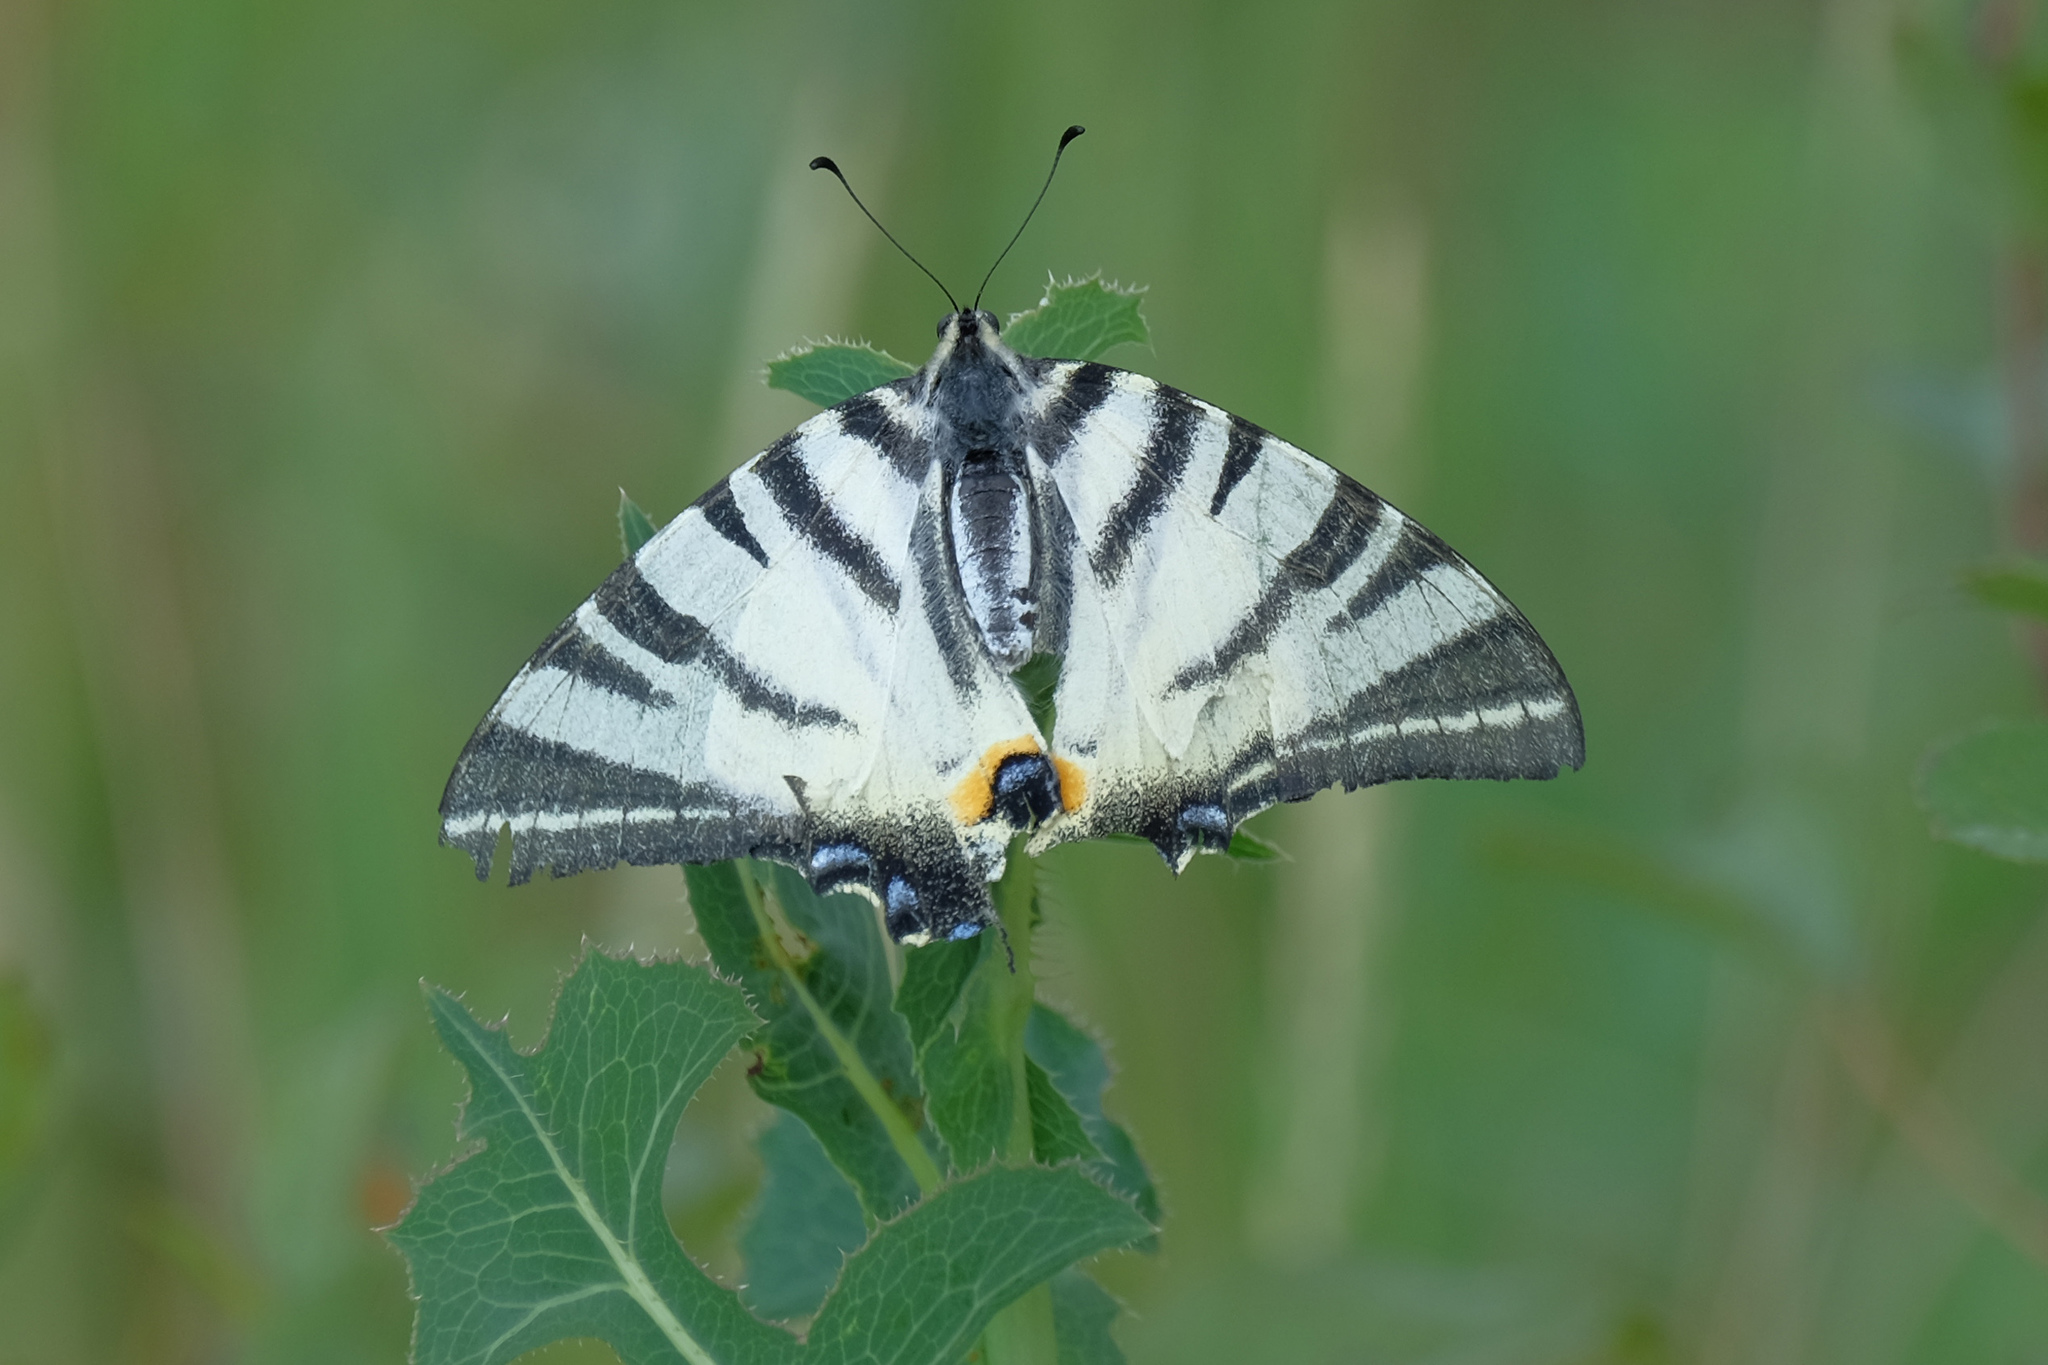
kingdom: Animalia
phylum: Arthropoda
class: Insecta
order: Lepidoptera
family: Papilionidae
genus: Iphiclides
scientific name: Iphiclides podalirius
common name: Scarce swallowtail
